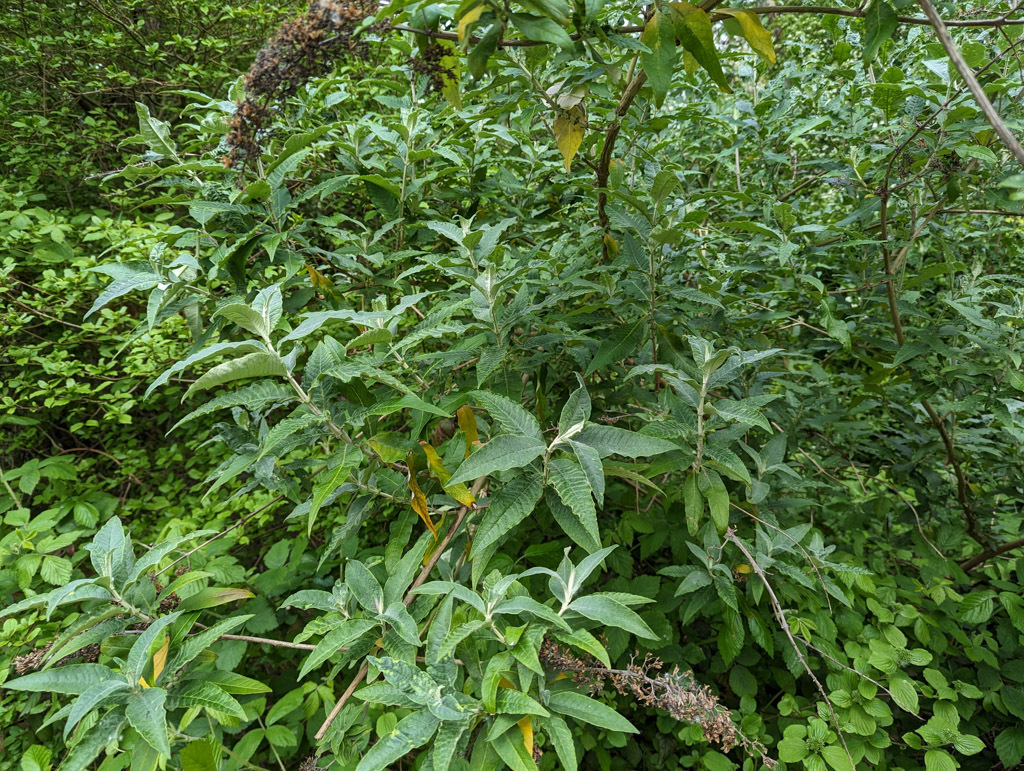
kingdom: Plantae
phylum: Tracheophyta
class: Magnoliopsida
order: Lamiales
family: Scrophulariaceae
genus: Buddleja
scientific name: Buddleja davidii
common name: Butterfly-bush
